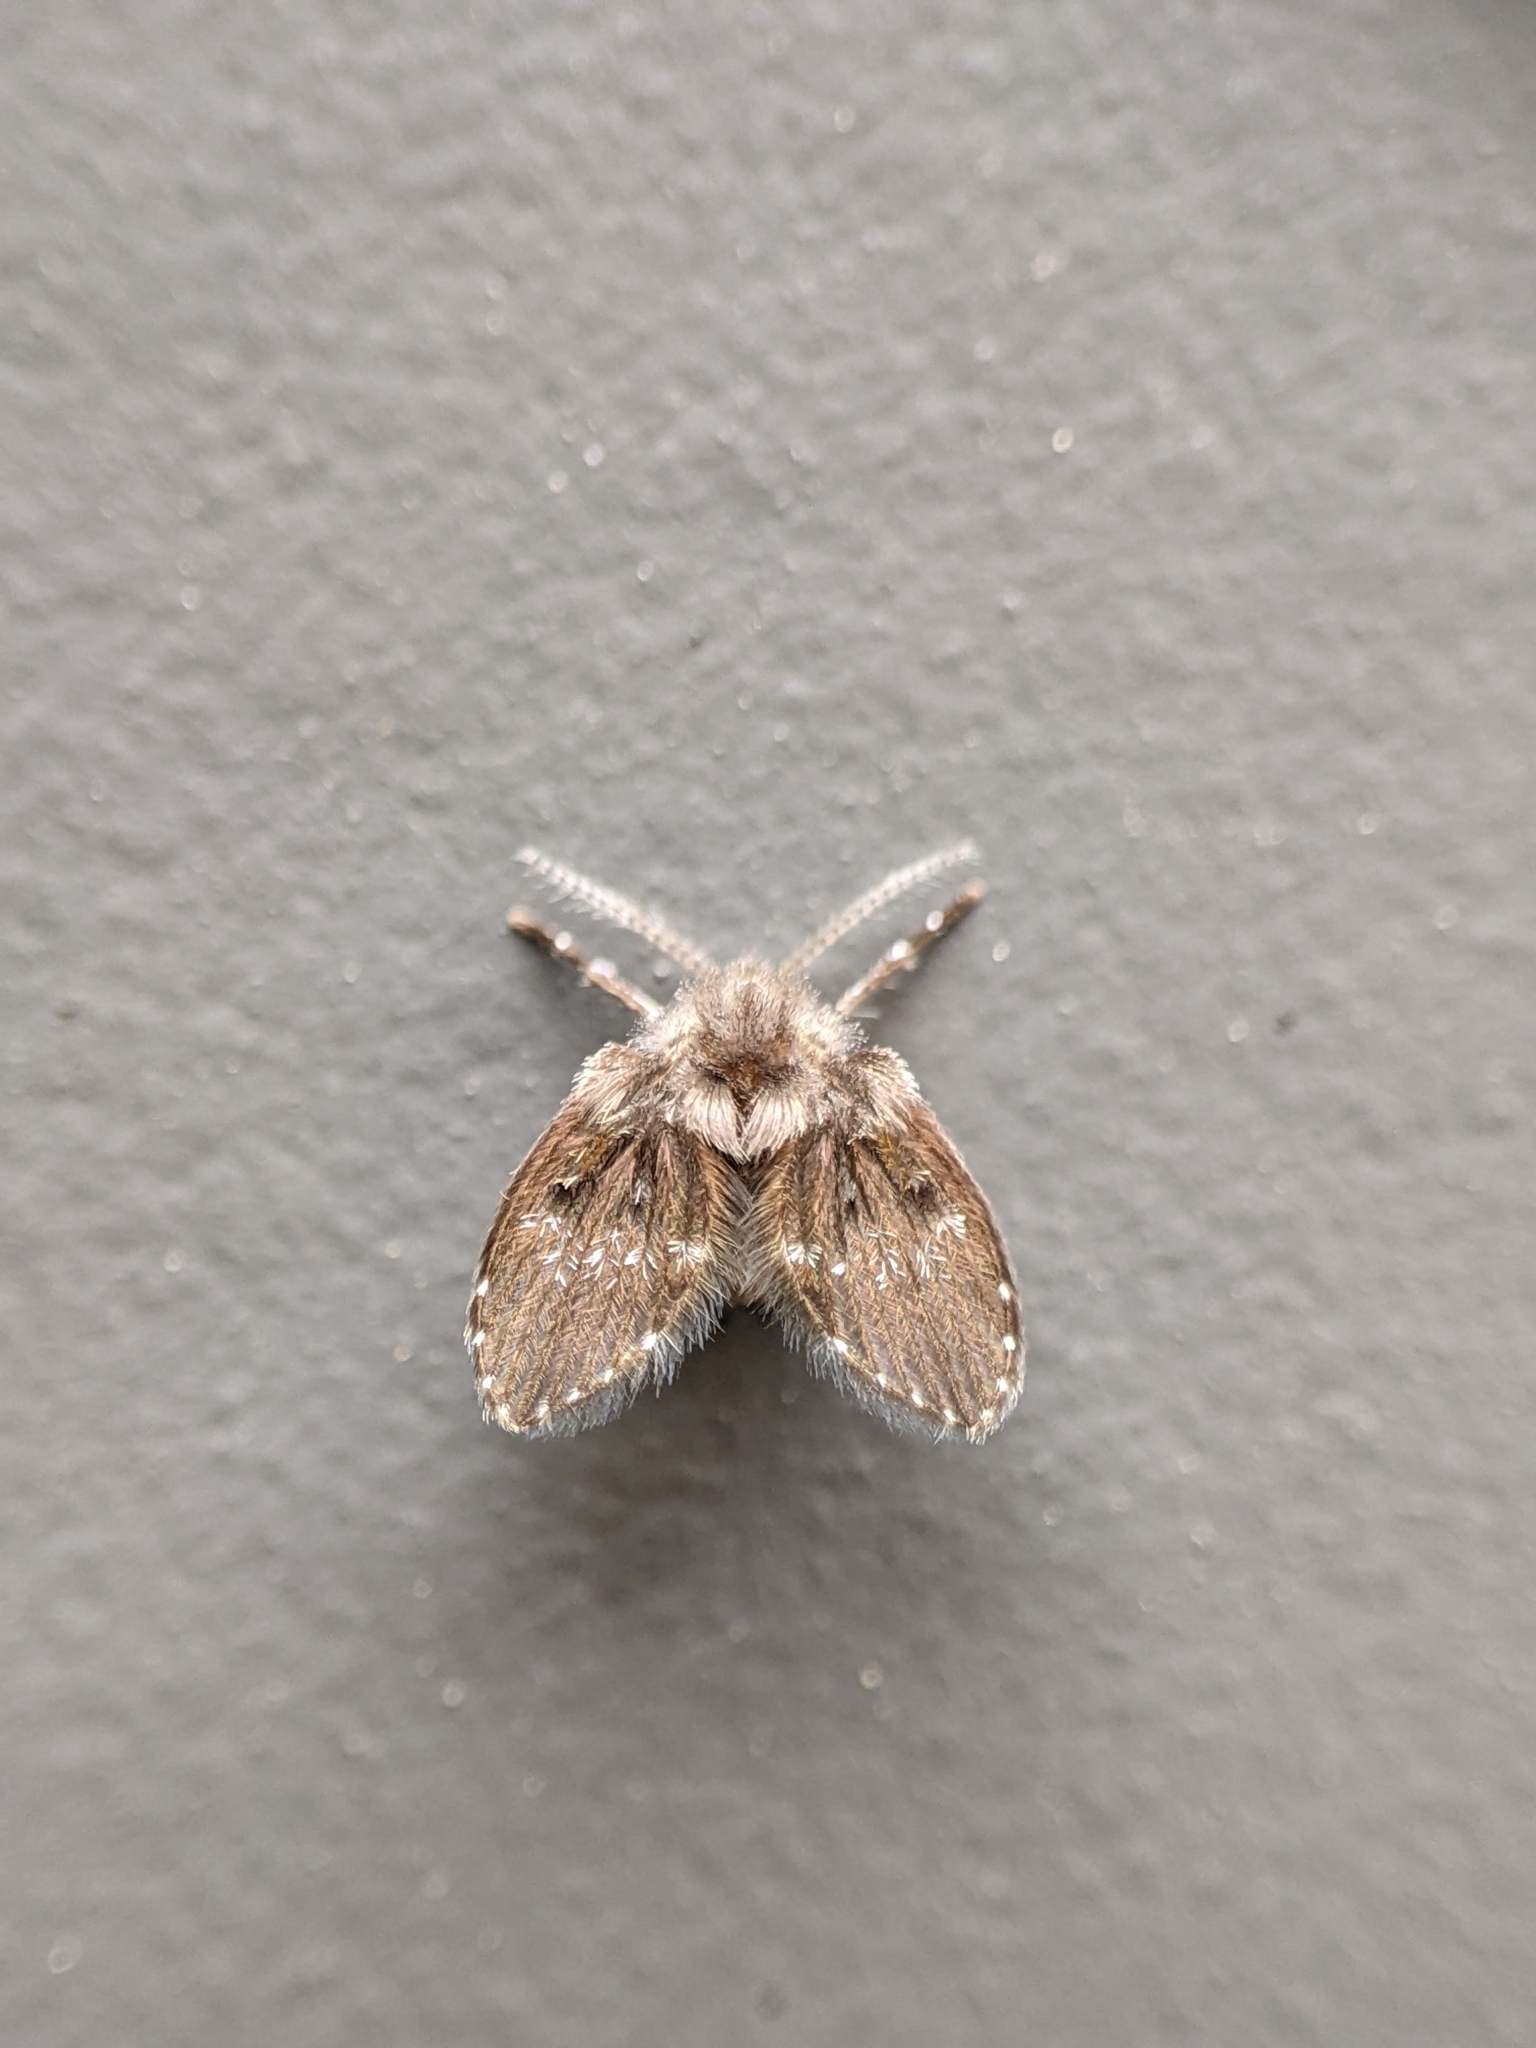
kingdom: Animalia
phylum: Arthropoda
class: Insecta
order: Diptera
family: Psychodidae
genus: Clogmia
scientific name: Clogmia albipunctatus
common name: White-spotted moth fly
